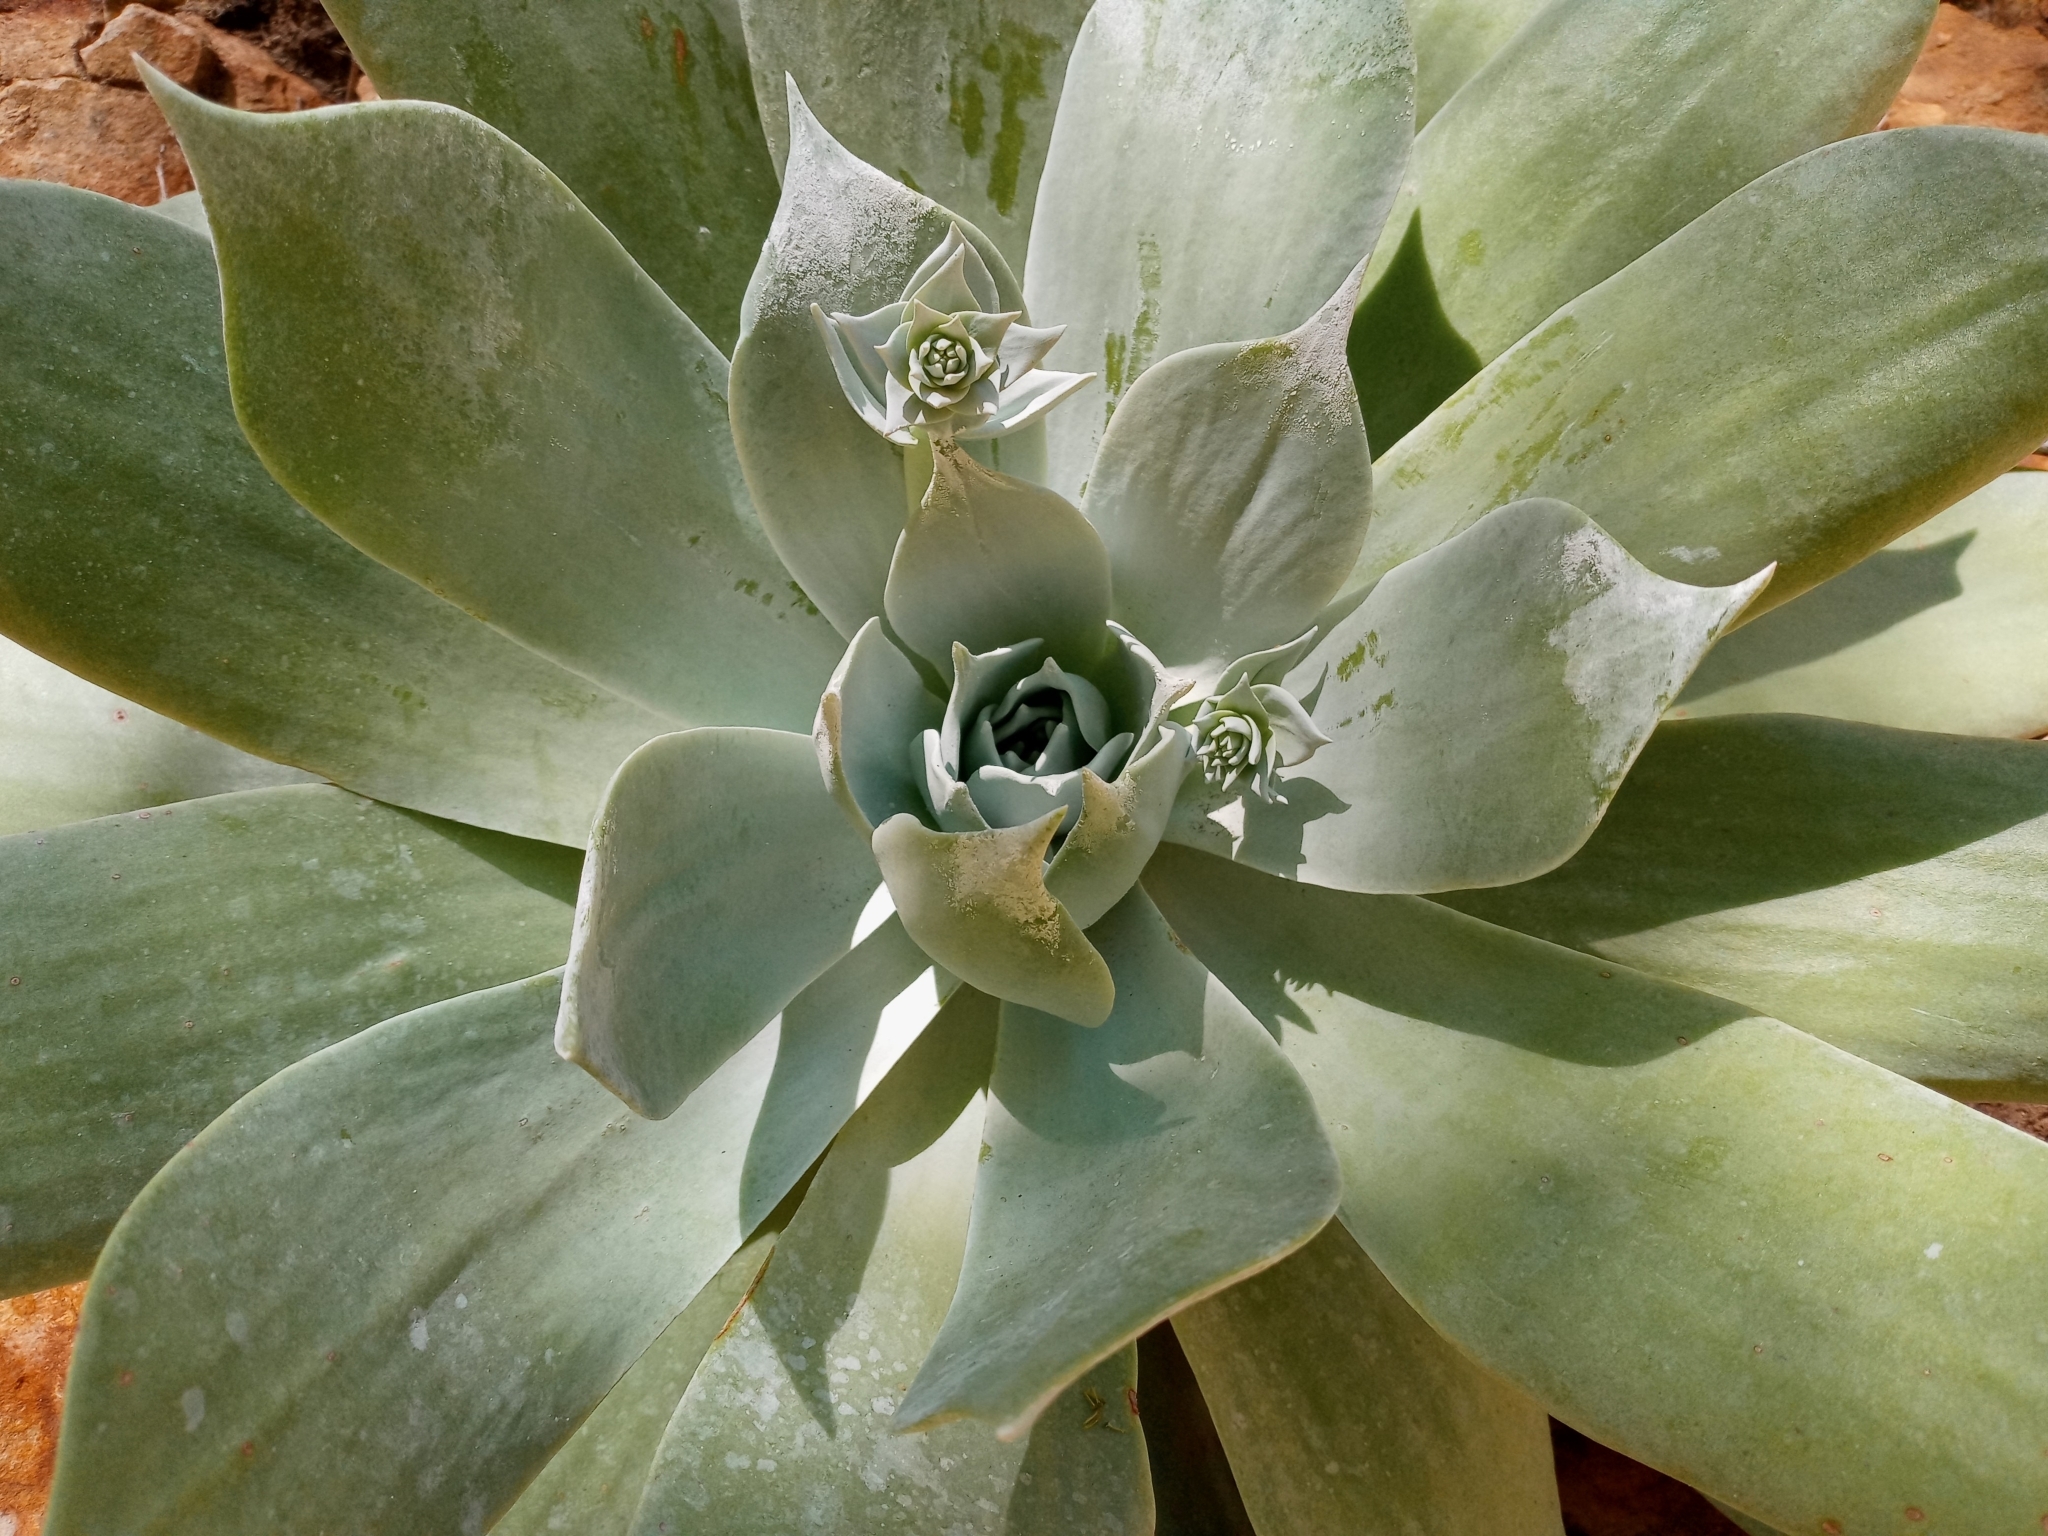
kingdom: Plantae
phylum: Tracheophyta
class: Magnoliopsida
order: Saxifragales
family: Crassulaceae
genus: Dudleya
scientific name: Dudleya pulverulenta
